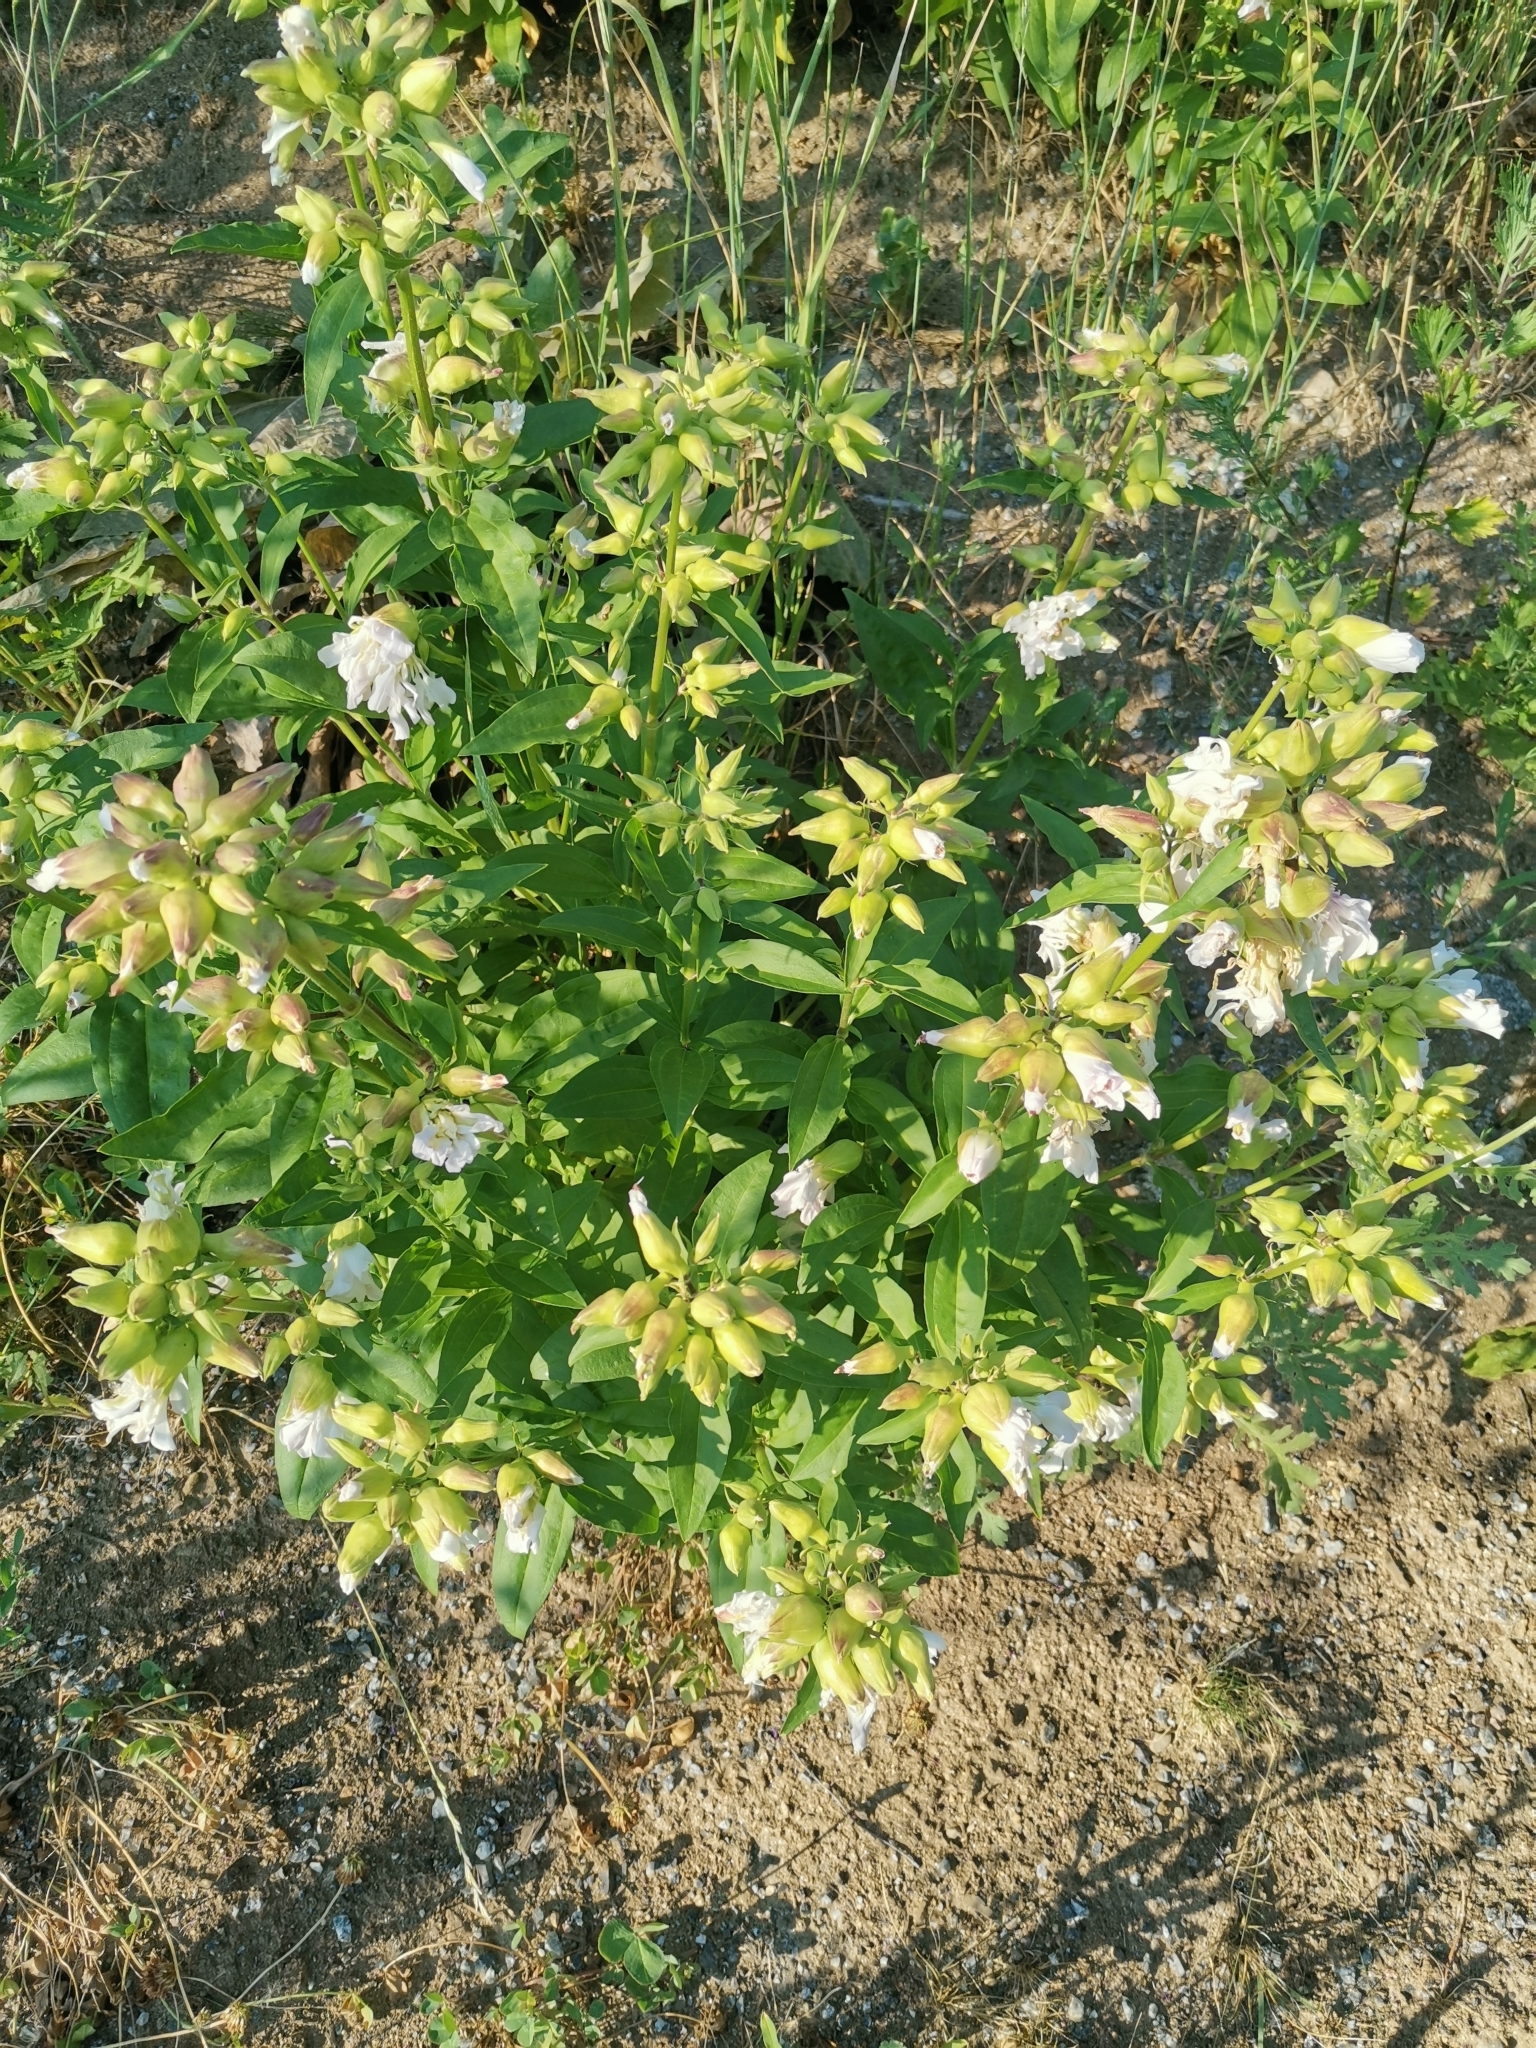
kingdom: Plantae
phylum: Tracheophyta
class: Magnoliopsida
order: Caryophyllales
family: Caryophyllaceae
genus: Saponaria
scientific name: Saponaria officinalis
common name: Soapwort
